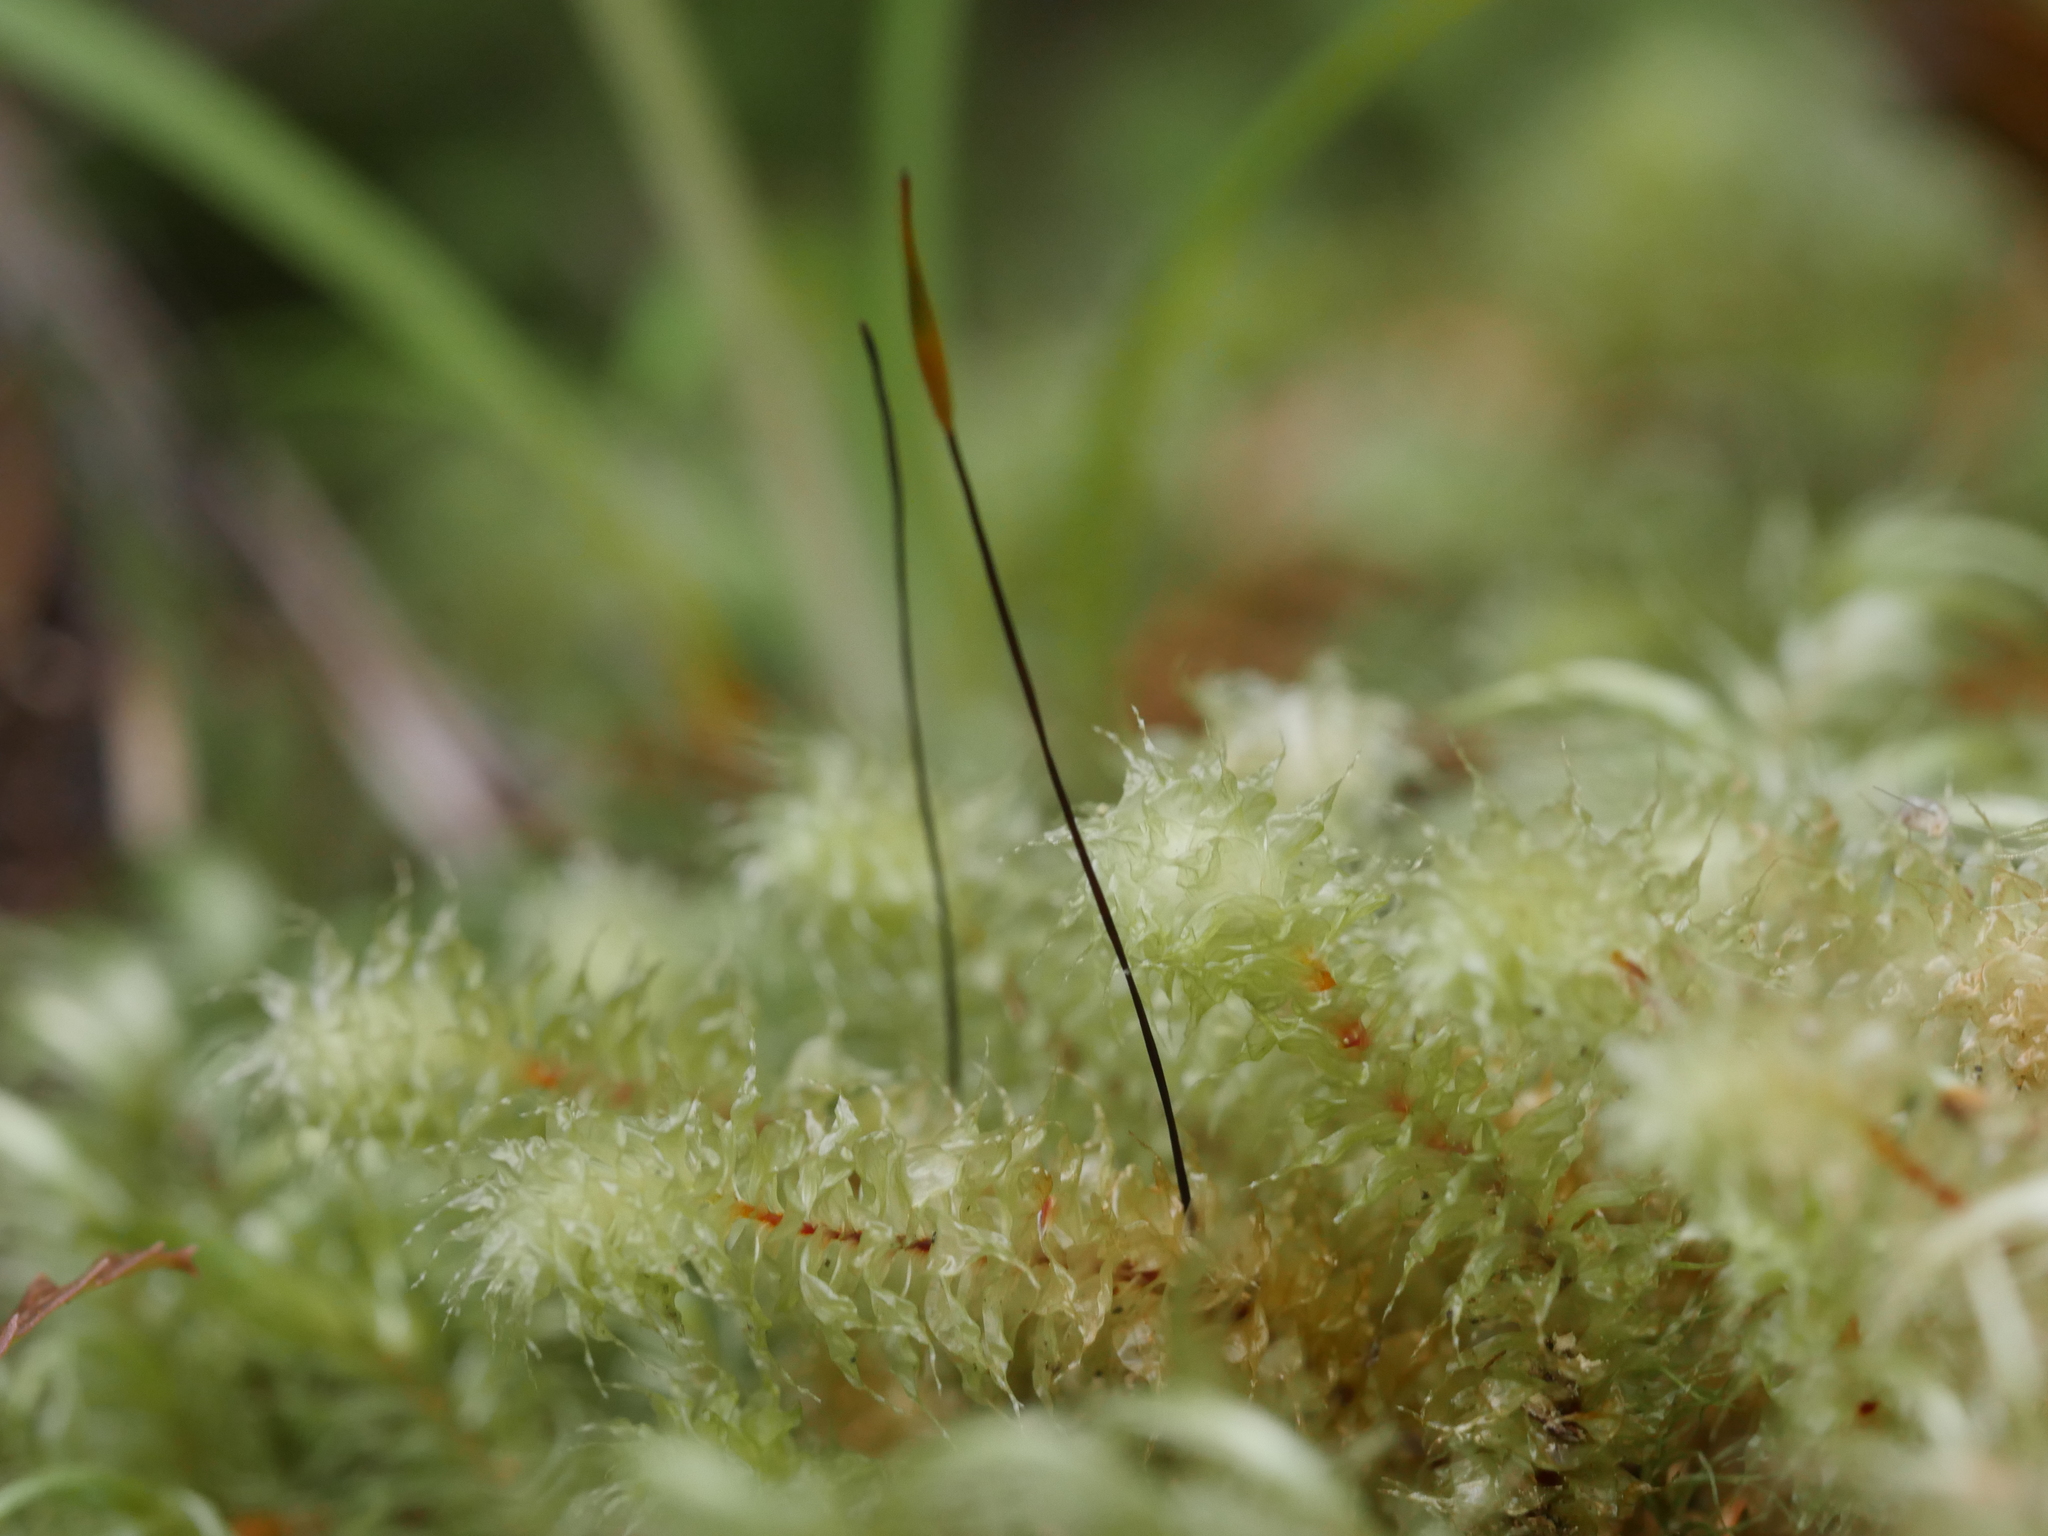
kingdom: Plantae
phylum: Bryophyta
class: Bryopsida
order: Ptychomniales
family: Ptychomniaceae
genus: Ptychomnion
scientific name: Ptychomnion aciculare
